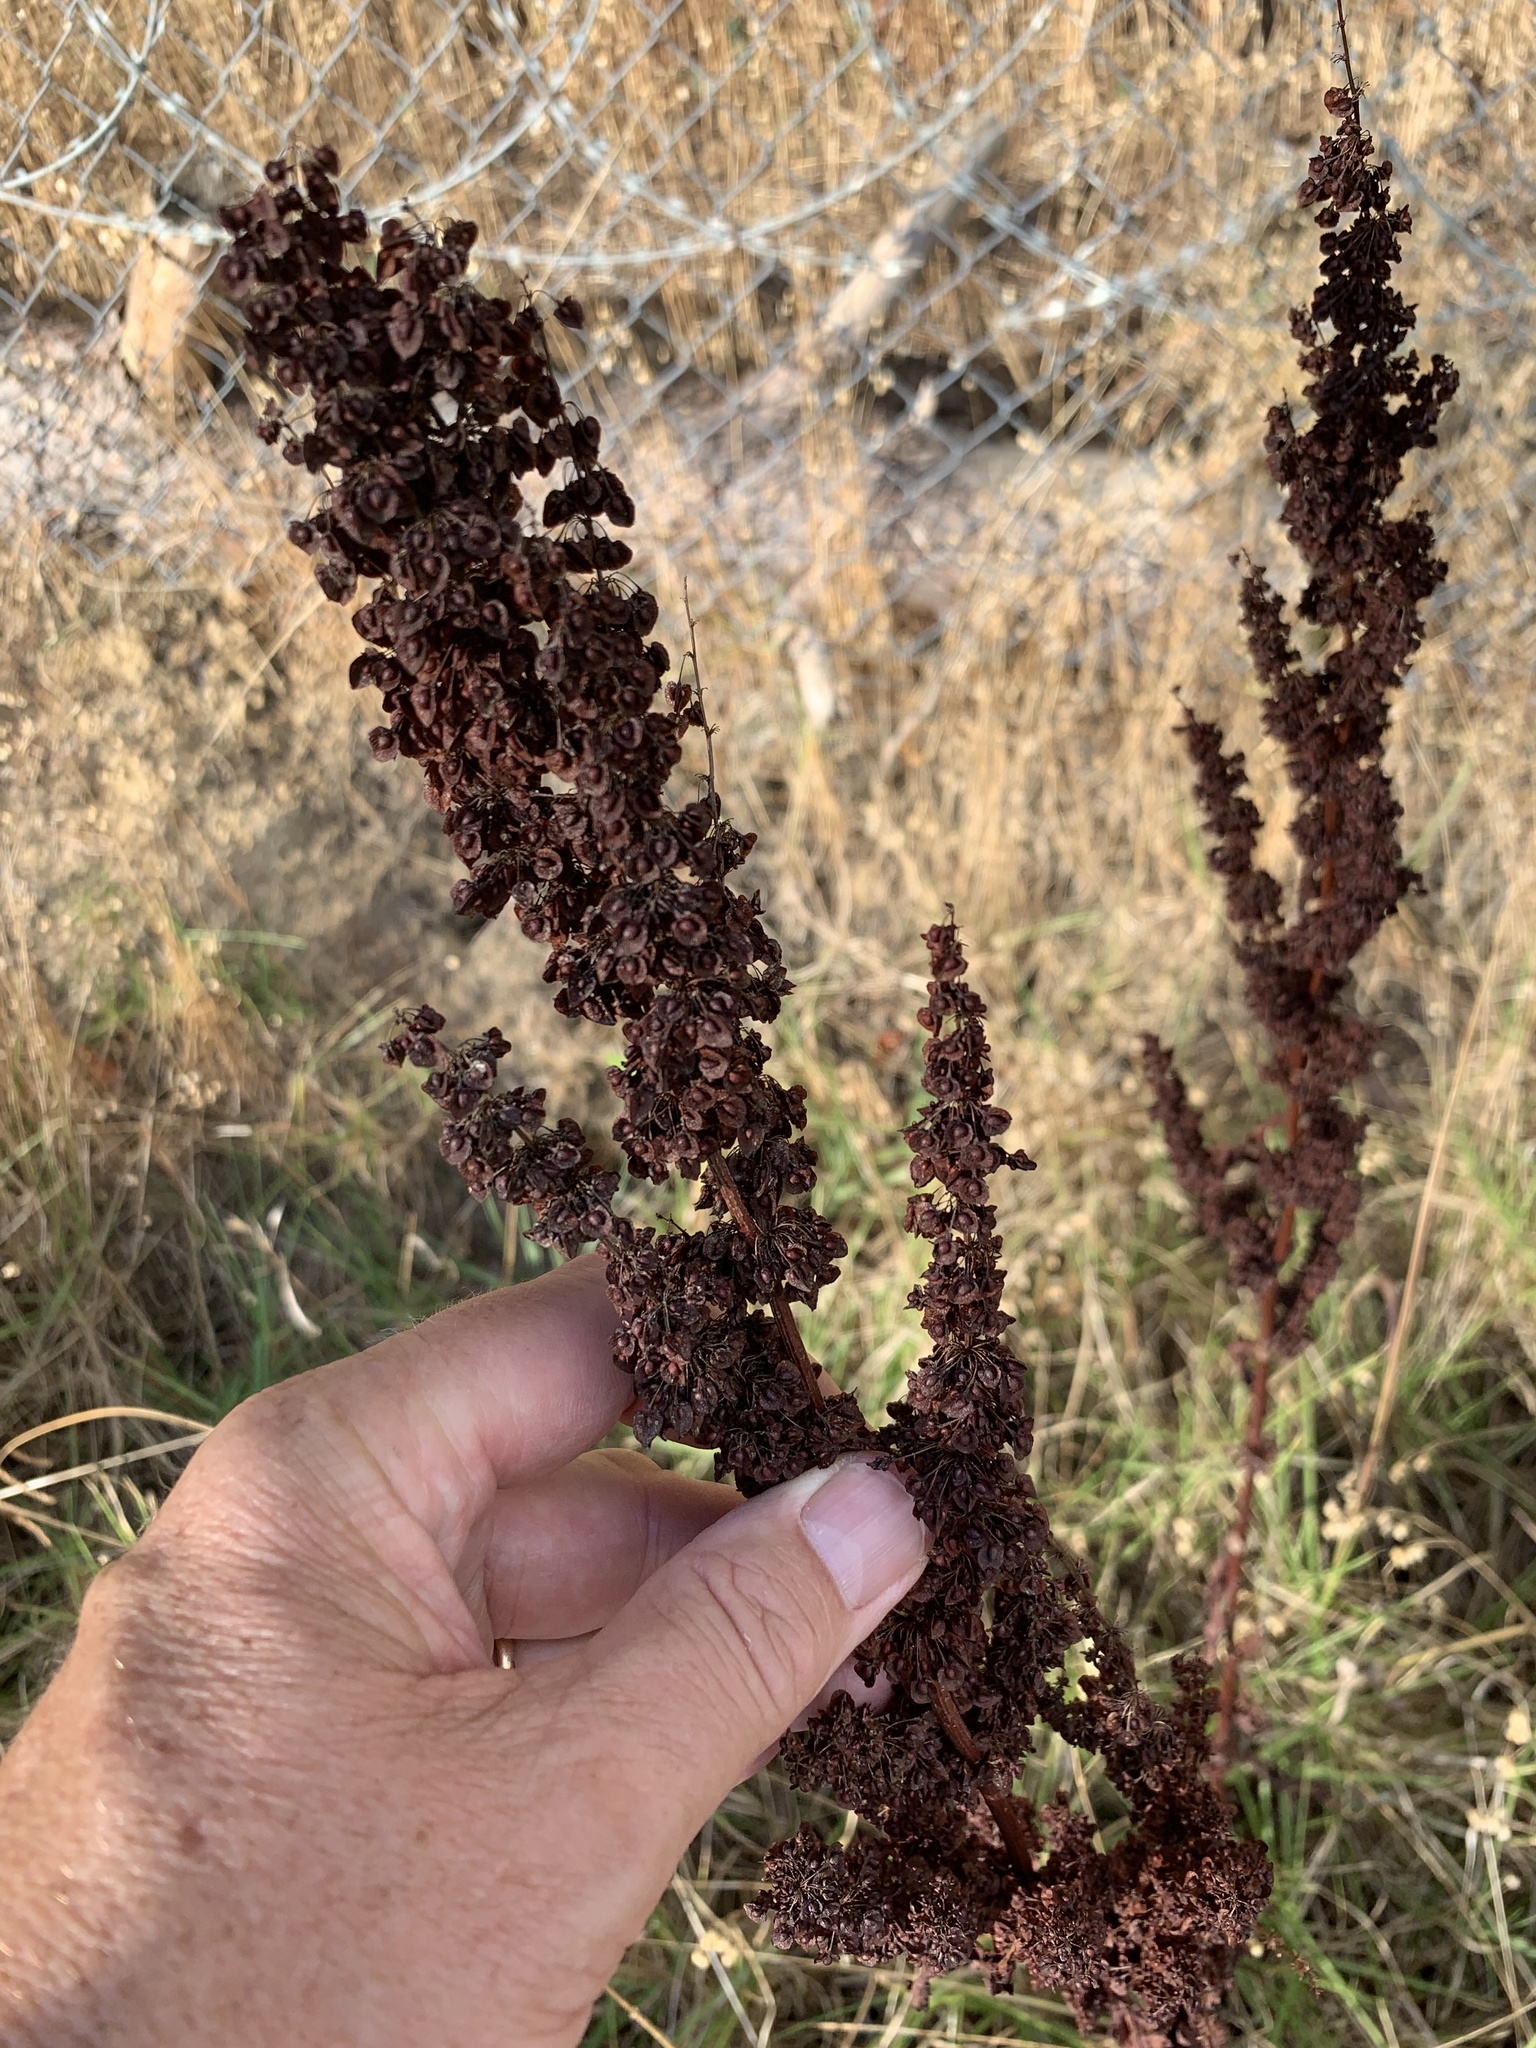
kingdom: Plantae
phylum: Tracheophyta
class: Magnoliopsida
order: Caryophyllales
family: Polygonaceae
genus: Rumex
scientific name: Rumex crispus
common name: Curled dock
